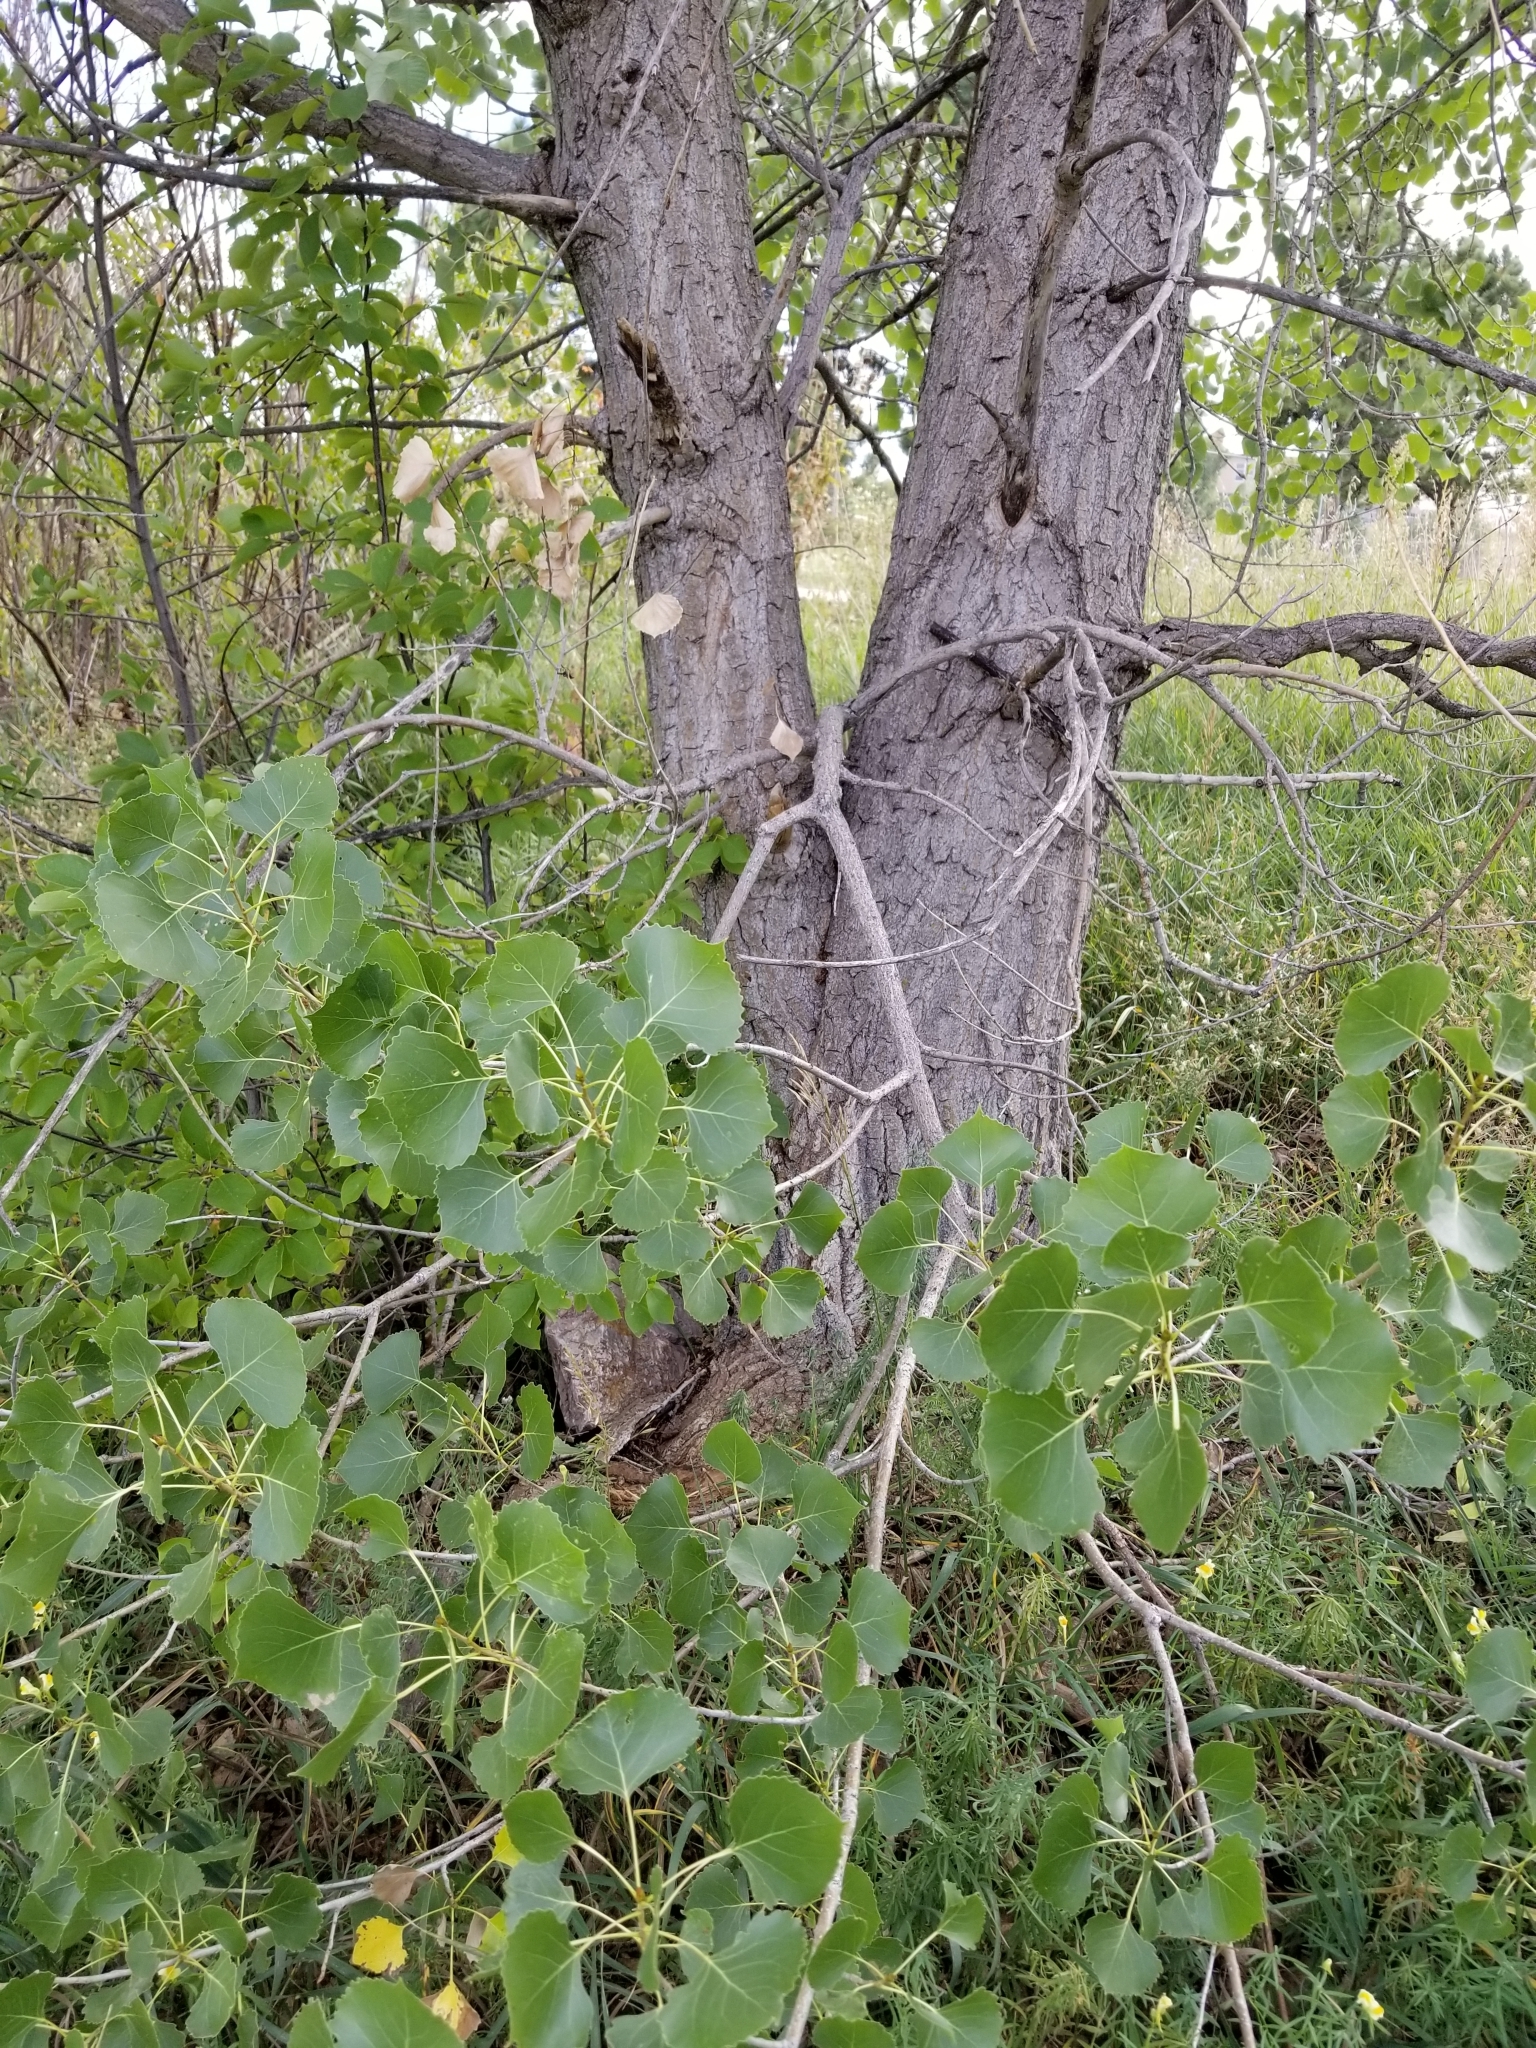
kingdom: Plantae
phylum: Tracheophyta
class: Magnoliopsida
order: Malpighiales
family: Salicaceae
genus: Populus
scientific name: Populus deltoides
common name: Eastern cottonwood
